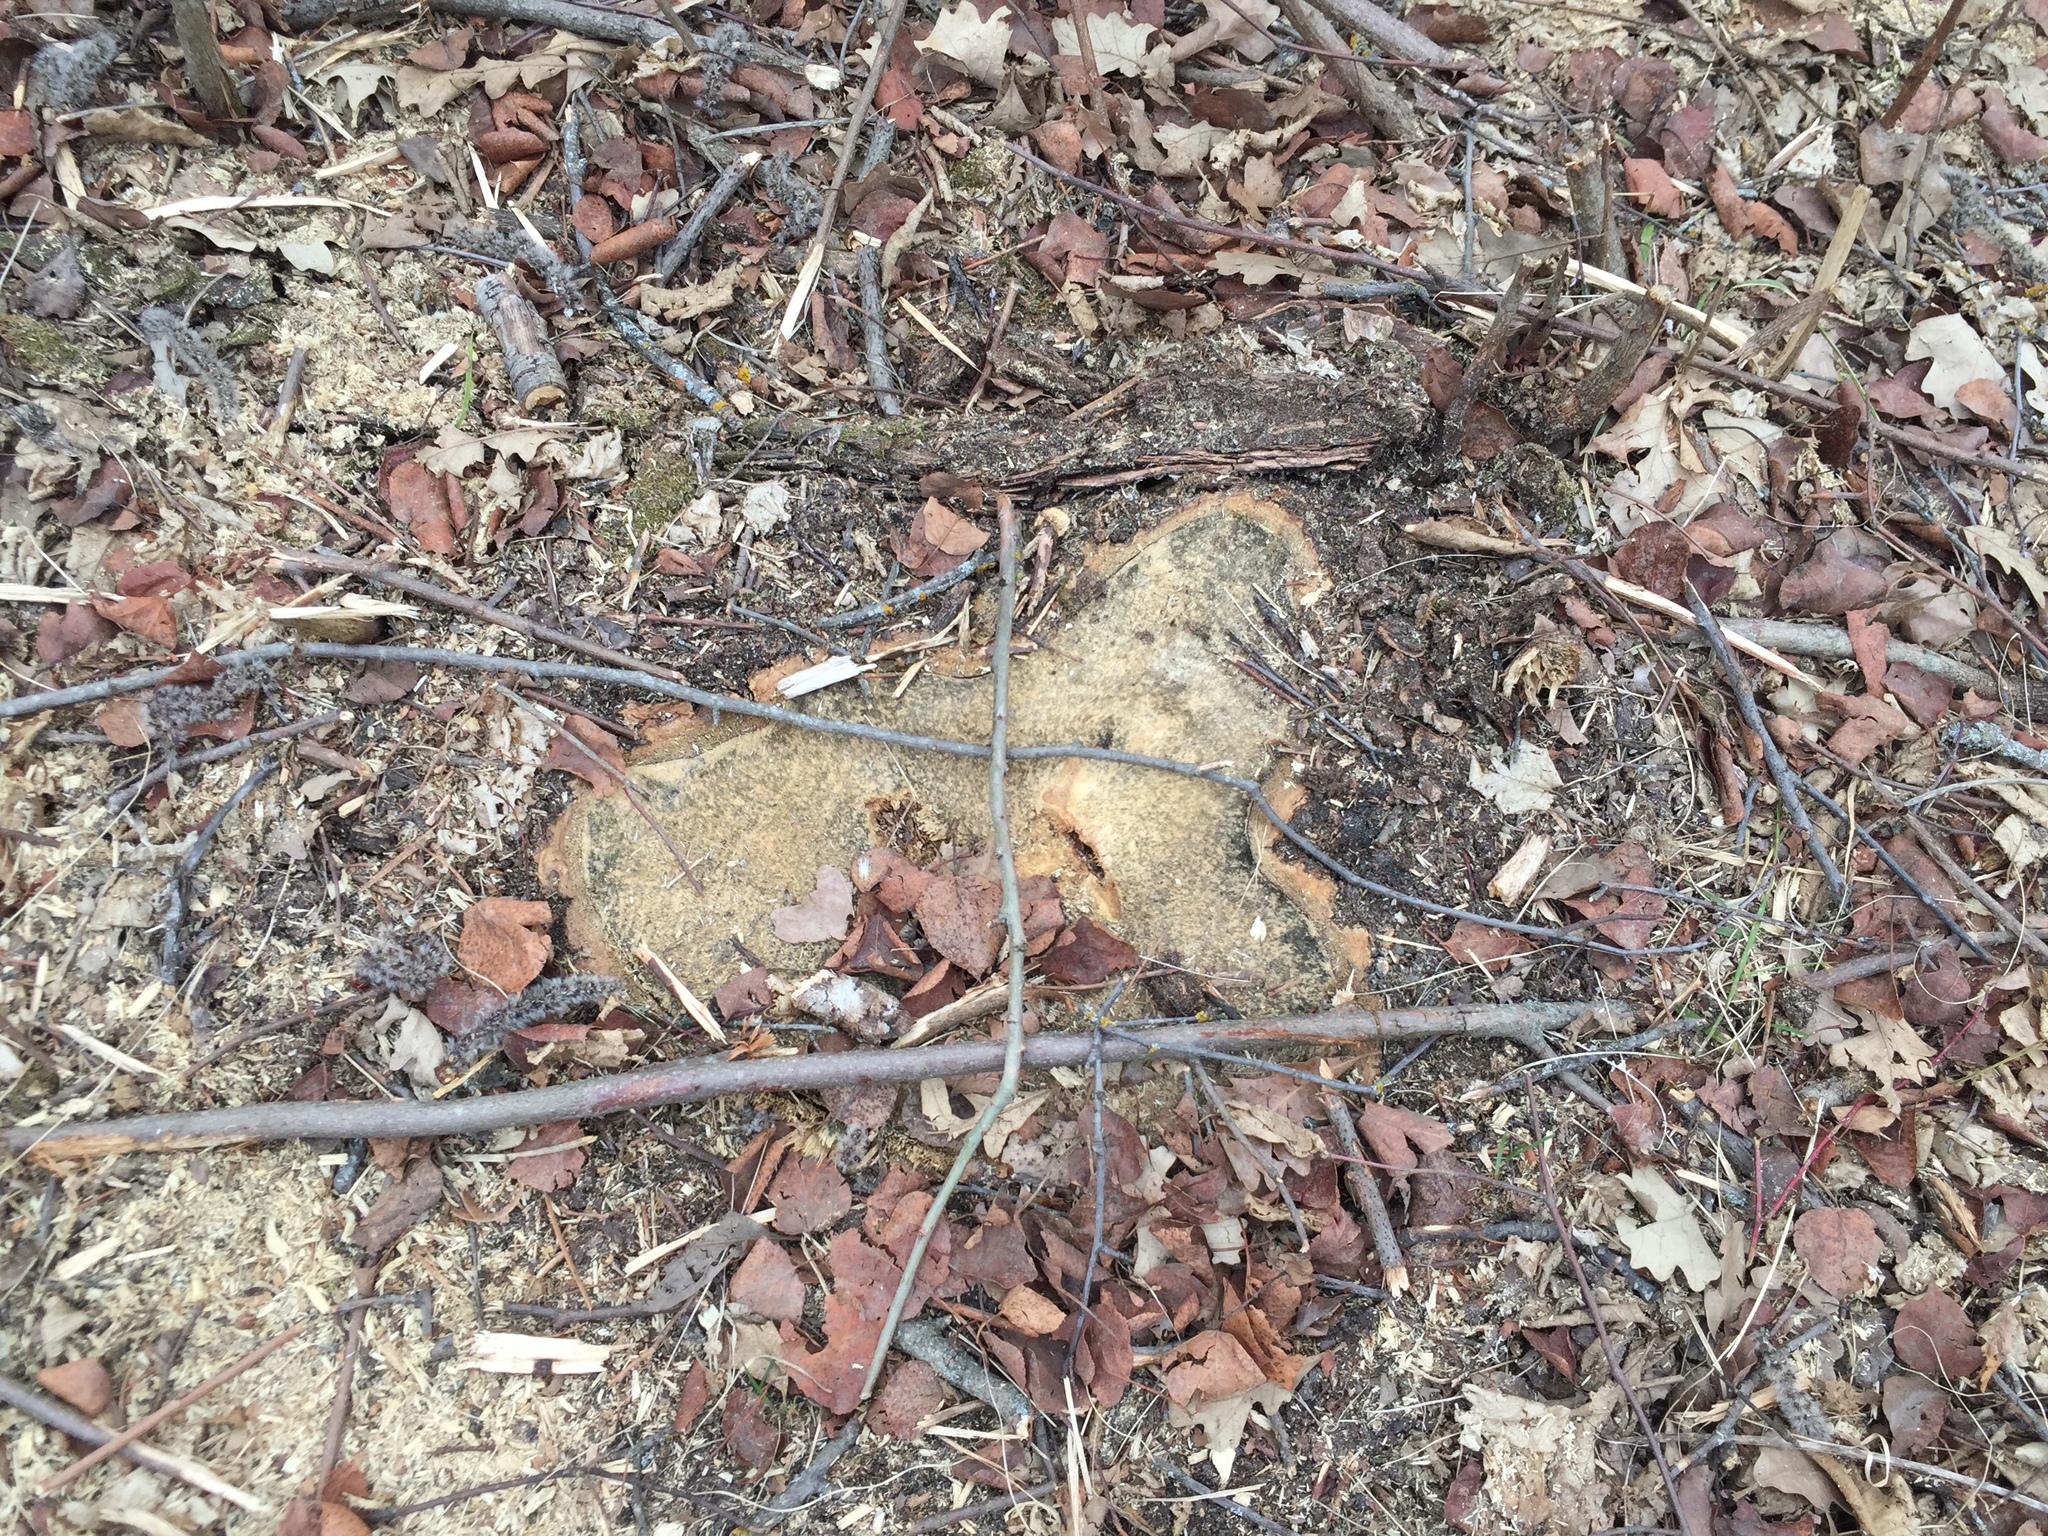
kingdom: Plantae
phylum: Tracheophyta
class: Magnoliopsida
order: Malpighiales
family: Salicaceae
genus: Populus
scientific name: Populus tremuloides
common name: Quaking aspen
